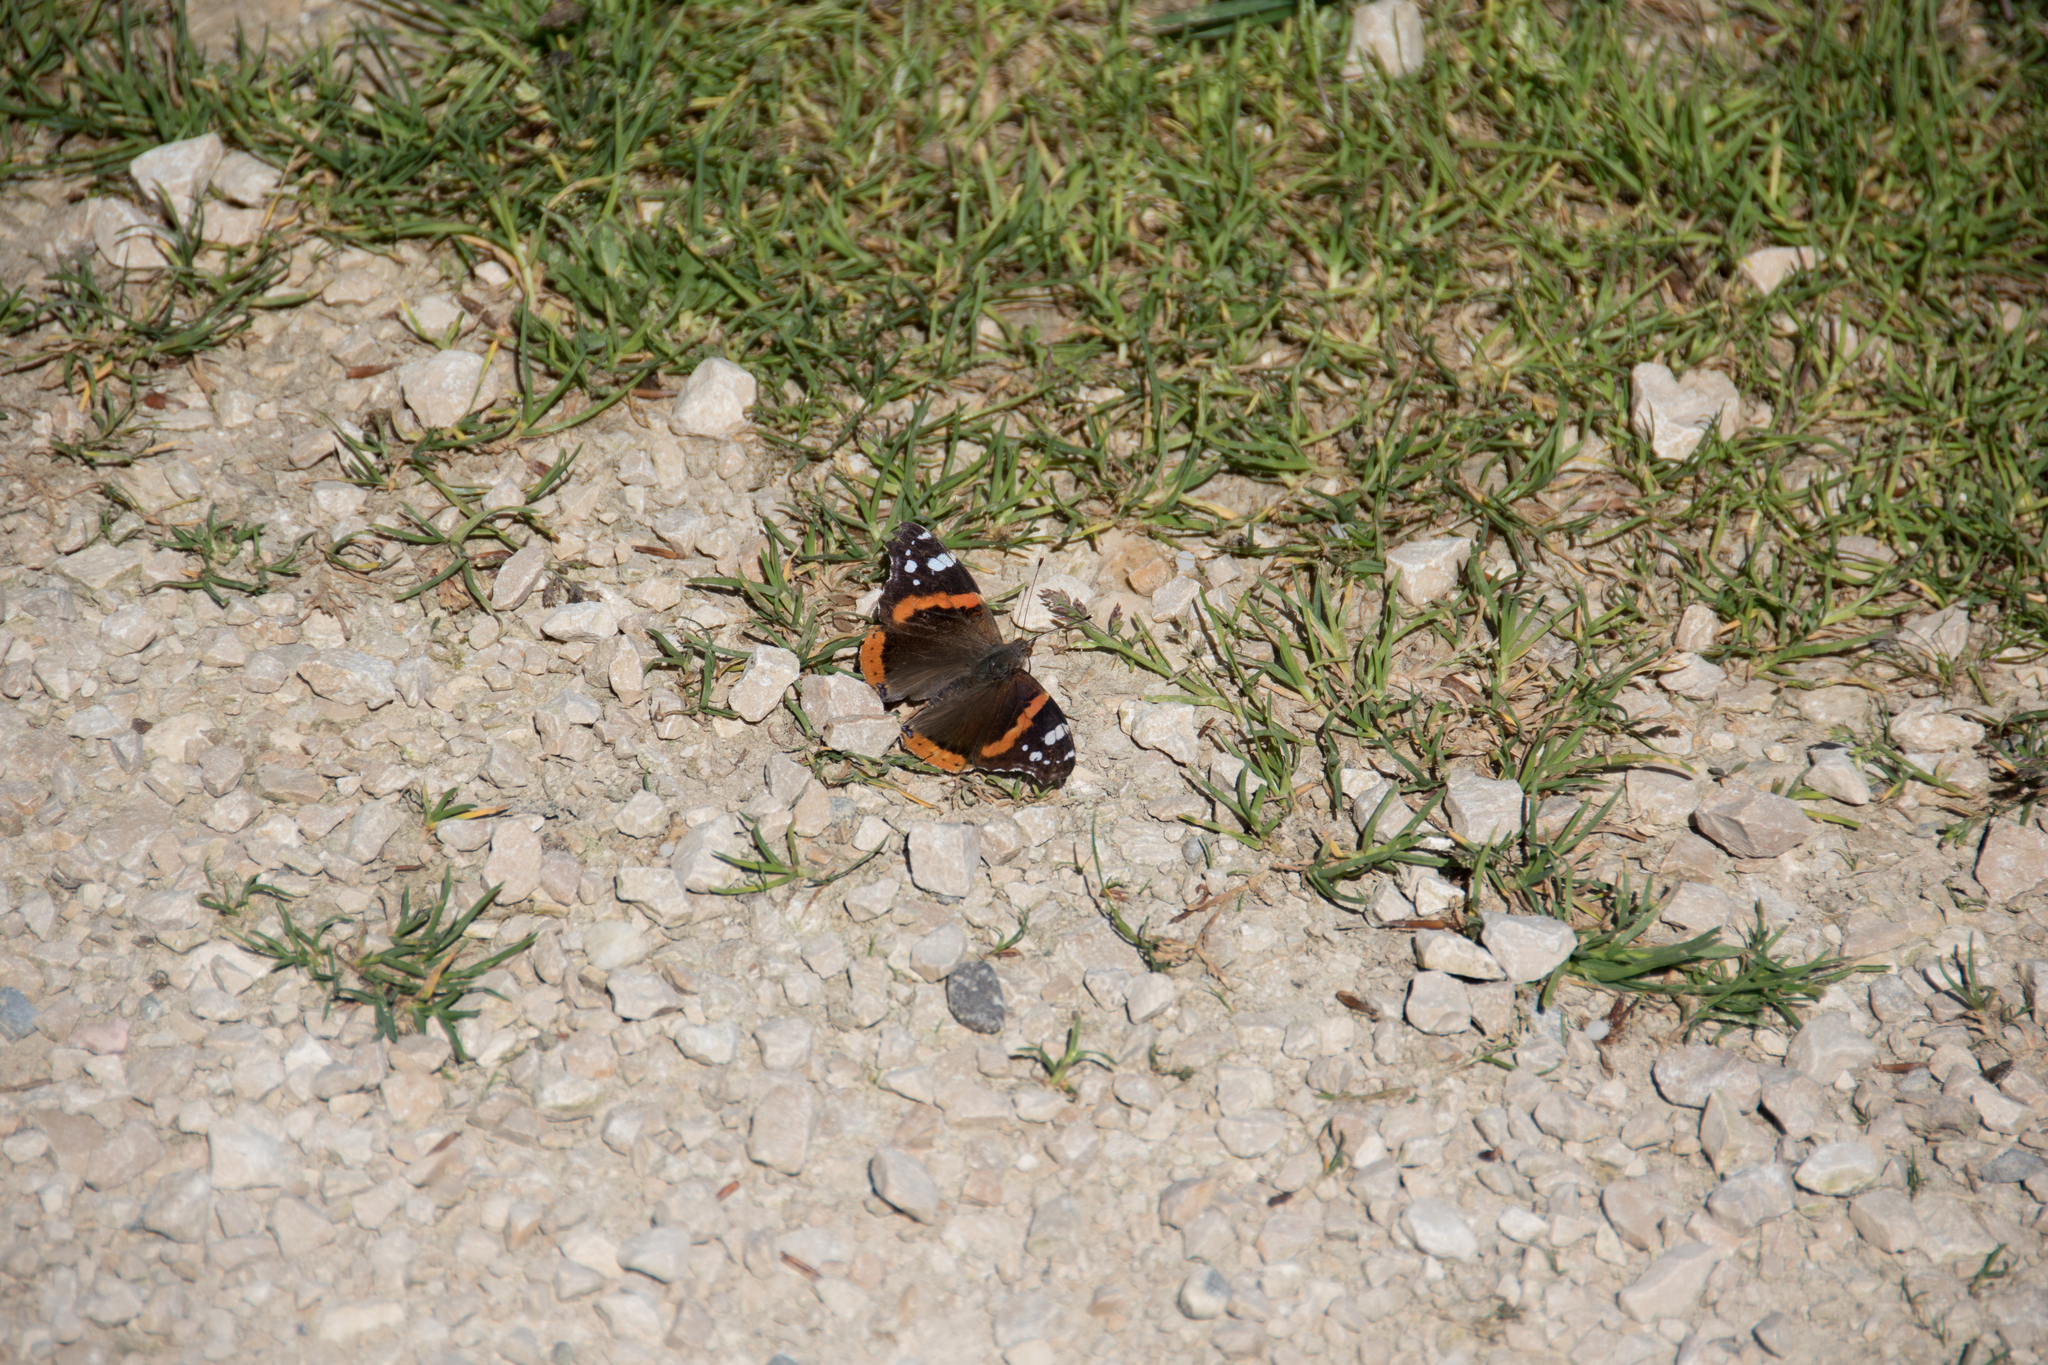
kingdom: Animalia
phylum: Arthropoda
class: Insecta
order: Lepidoptera
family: Nymphalidae
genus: Vanessa
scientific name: Vanessa atalanta
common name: Red admiral
